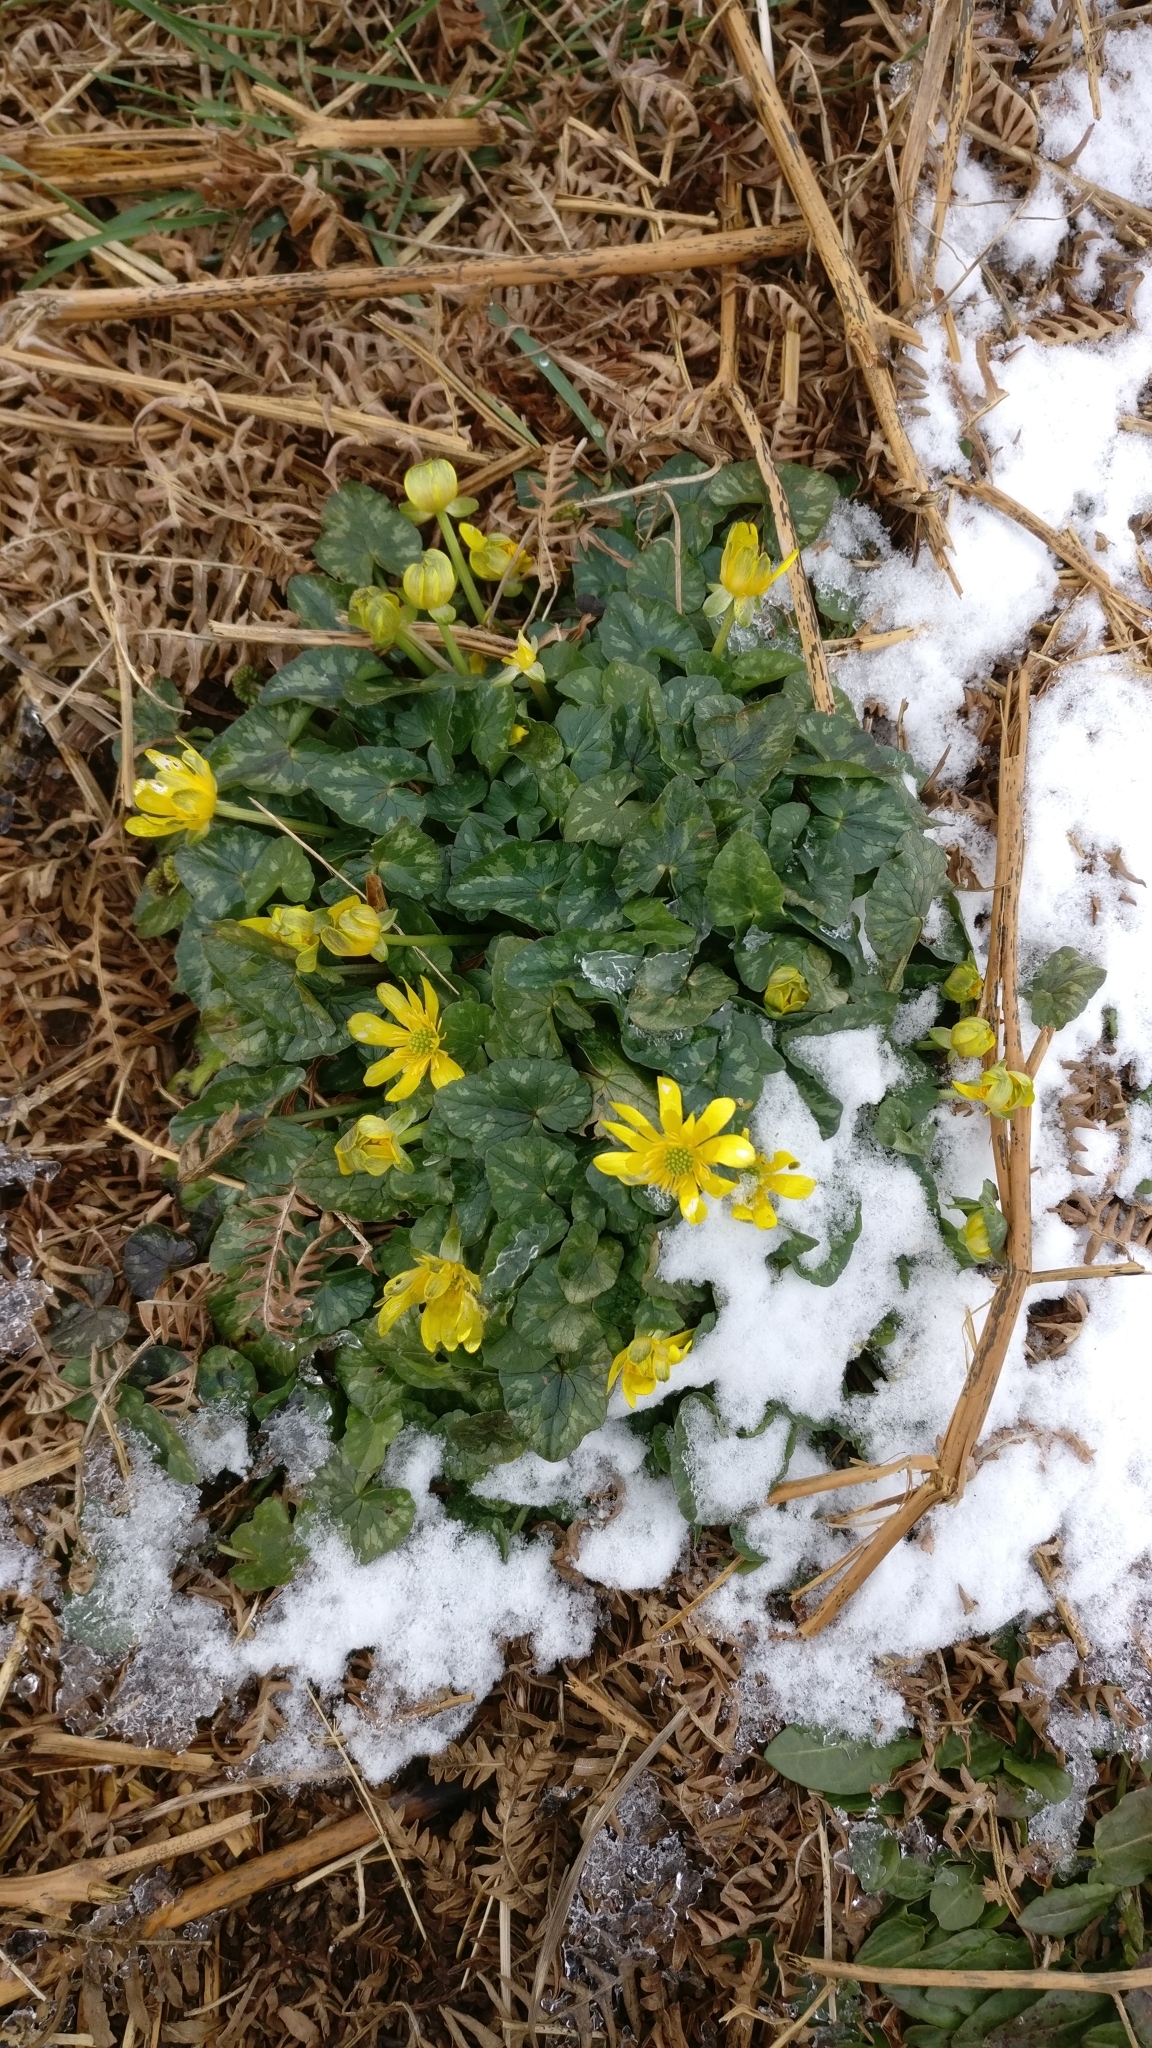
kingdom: Plantae
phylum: Tracheophyta
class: Magnoliopsida
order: Ranunculales
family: Ranunculaceae
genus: Ficaria
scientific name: Ficaria verna
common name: Lesser celandine
